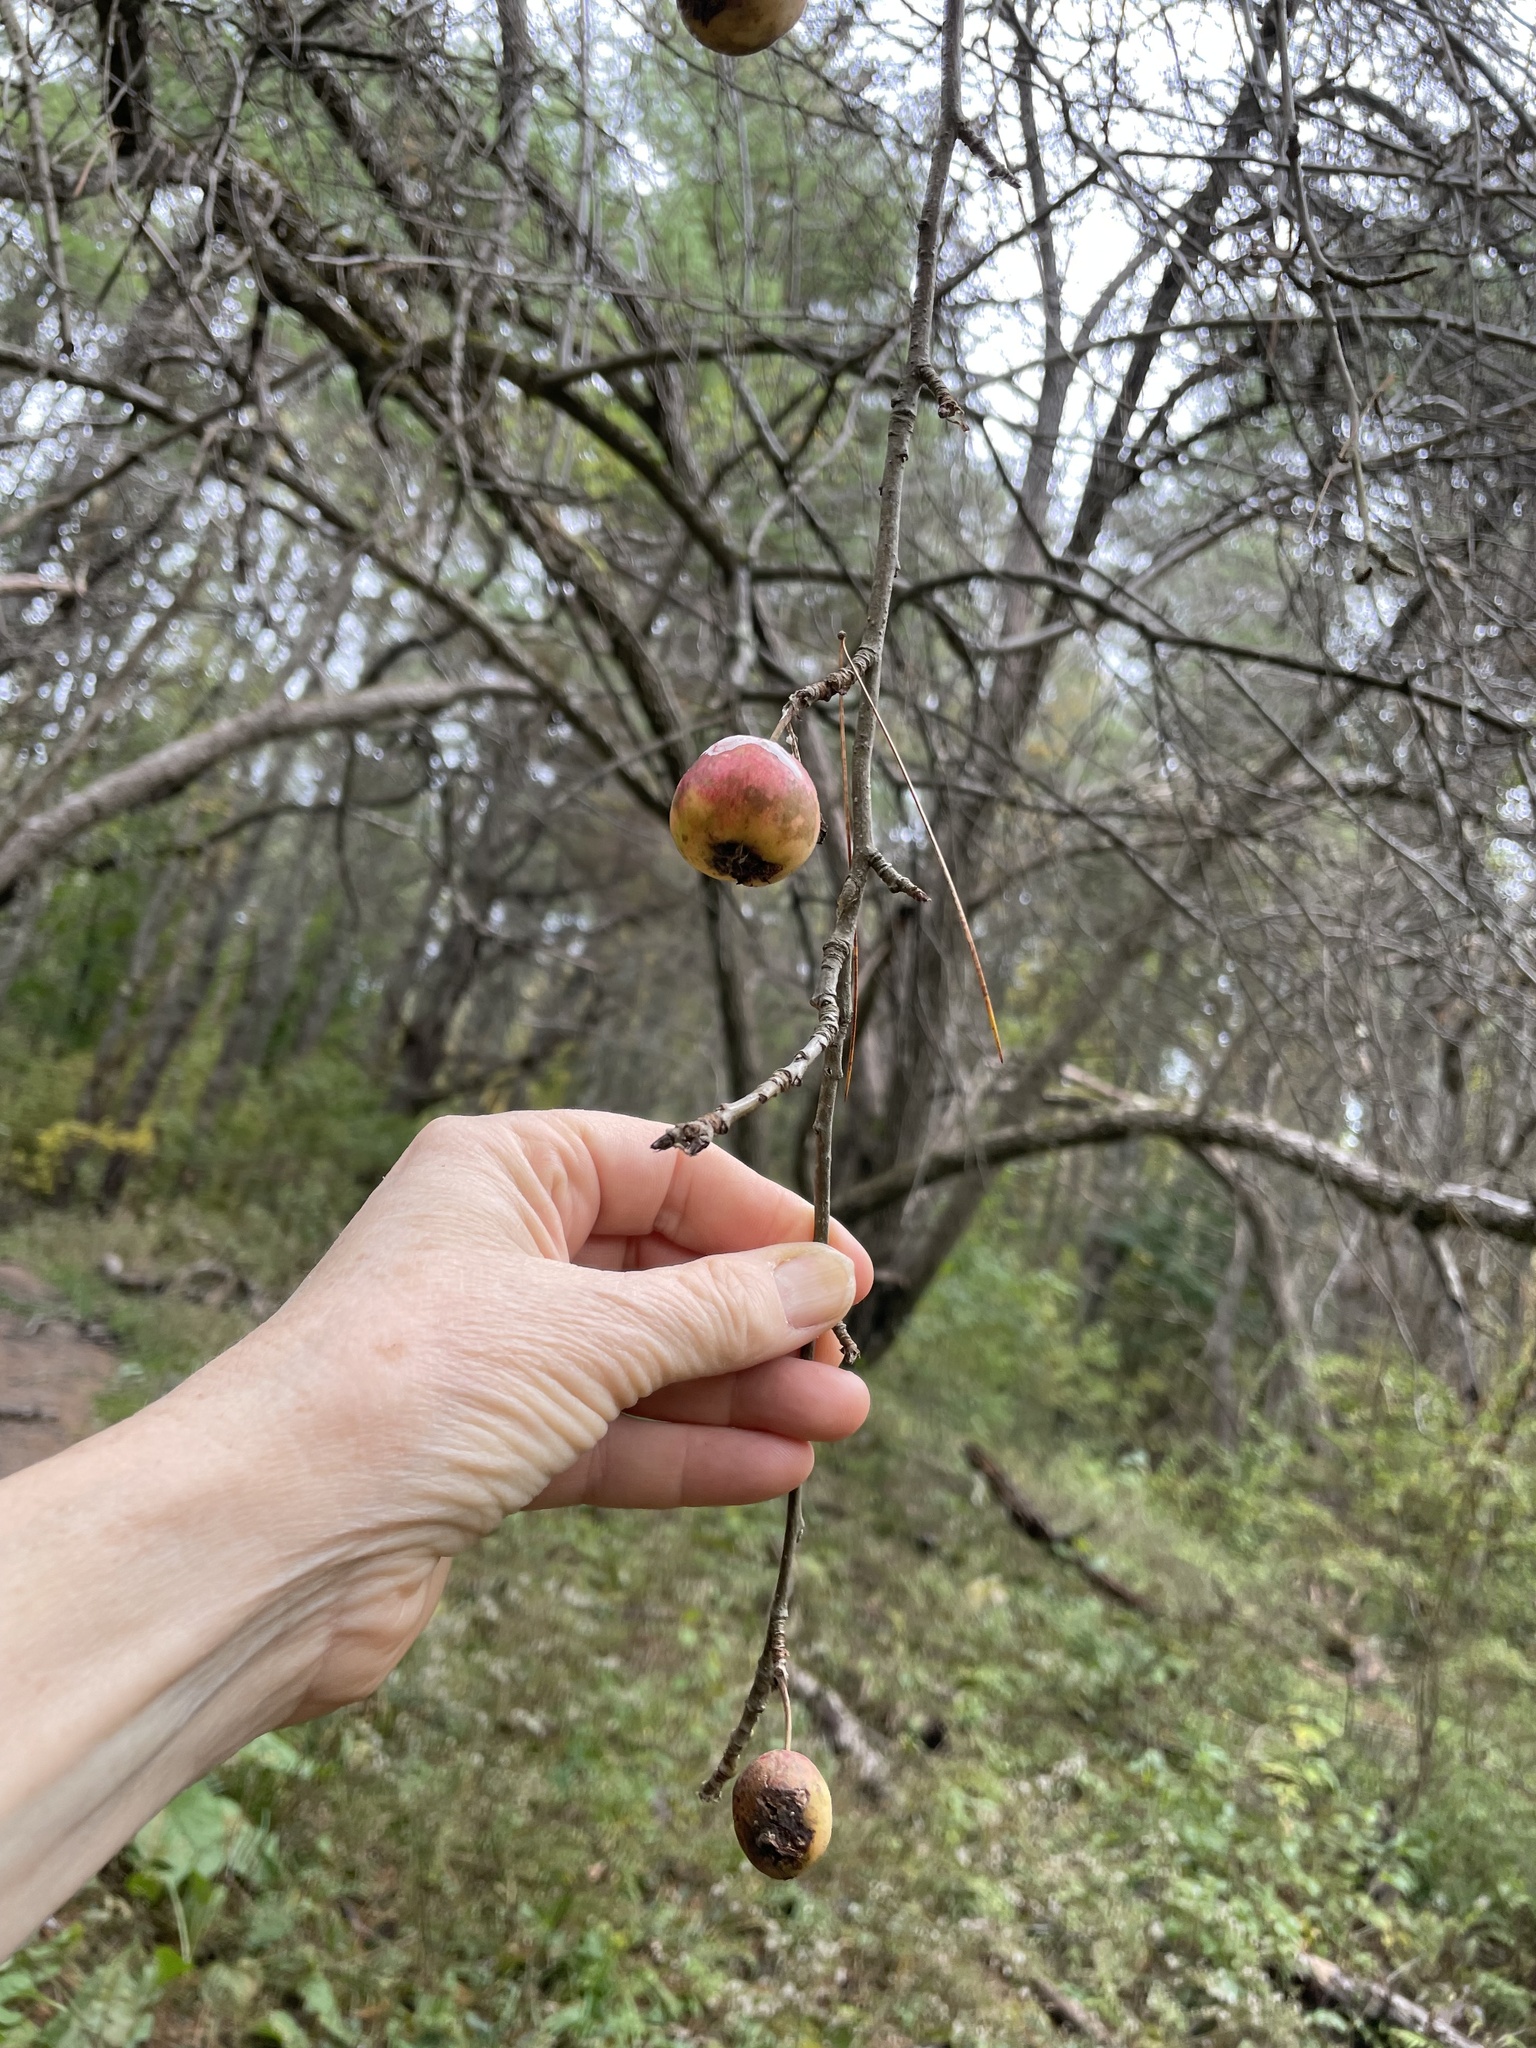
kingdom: Plantae
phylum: Tracheophyta
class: Magnoliopsida
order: Rosales
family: Rosaceae
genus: Malus
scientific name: Malus domestica
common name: Apple
